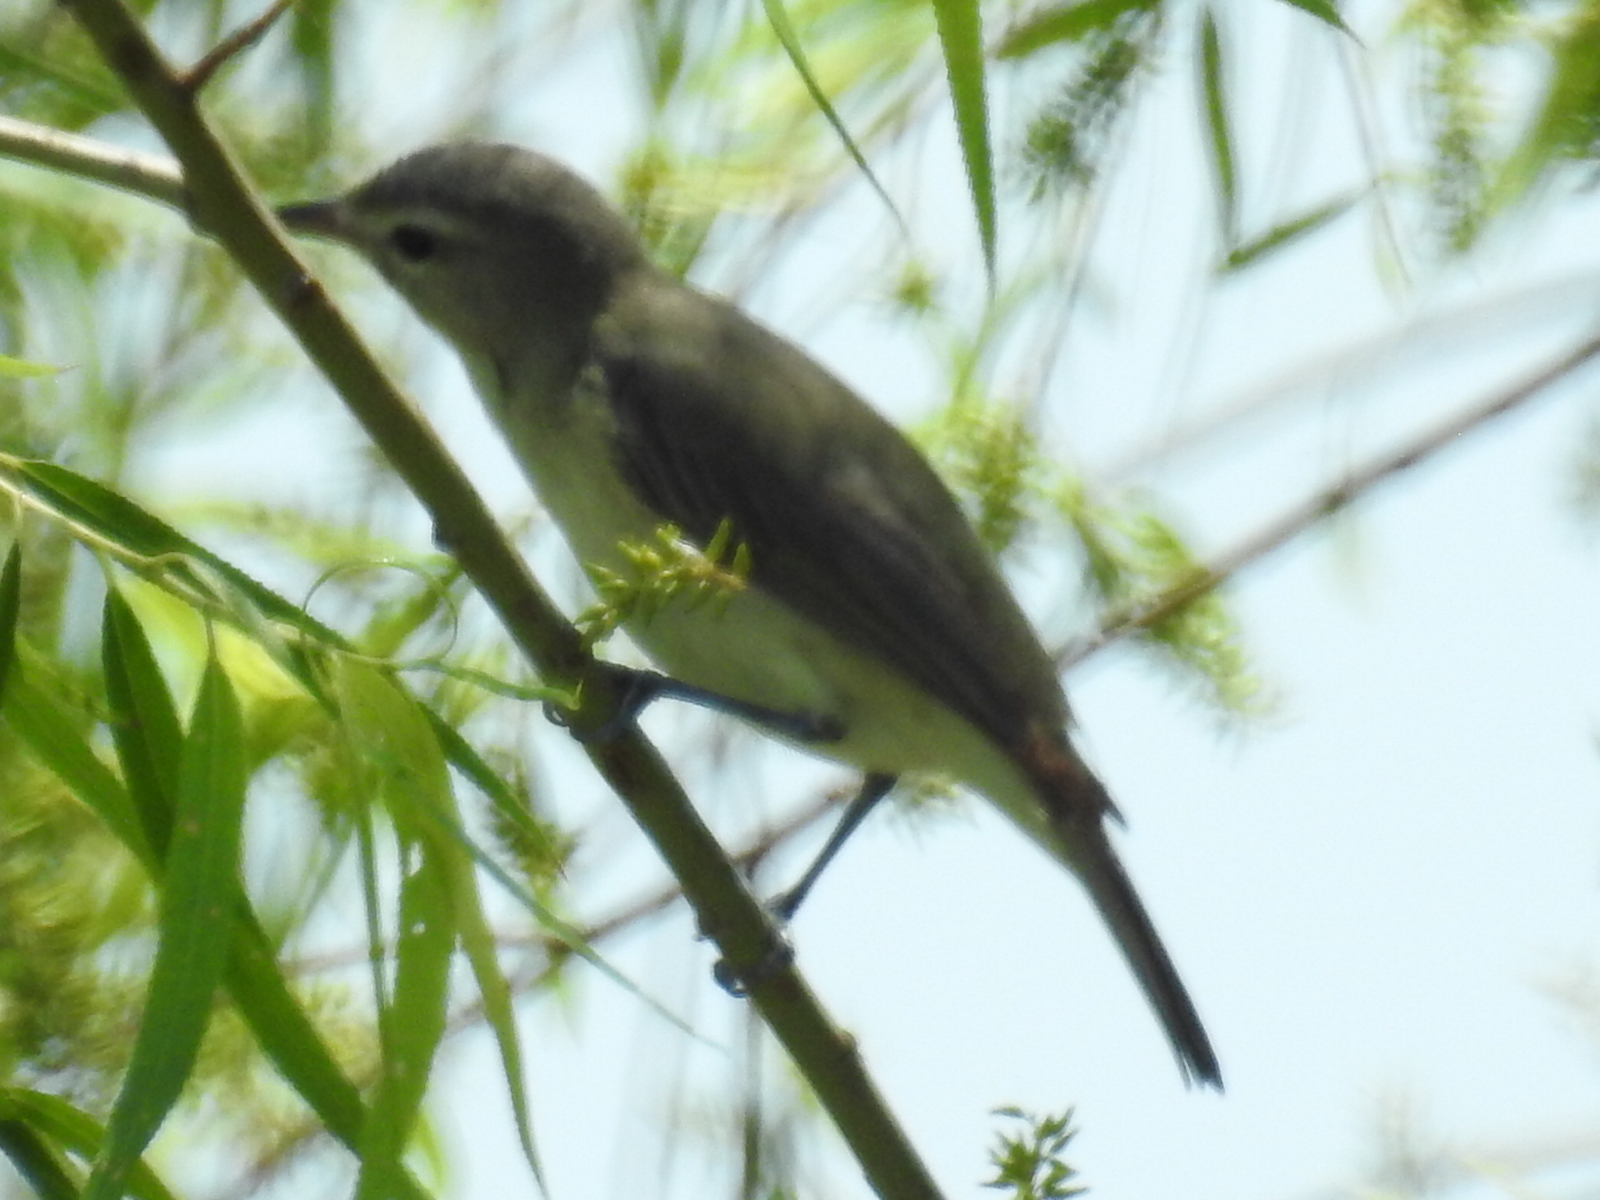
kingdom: Animalia
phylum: Chordata
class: Aves
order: Passeriformes
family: Vireonidae
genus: Vireo
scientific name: Vireo gilvus
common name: Warbling vireo
